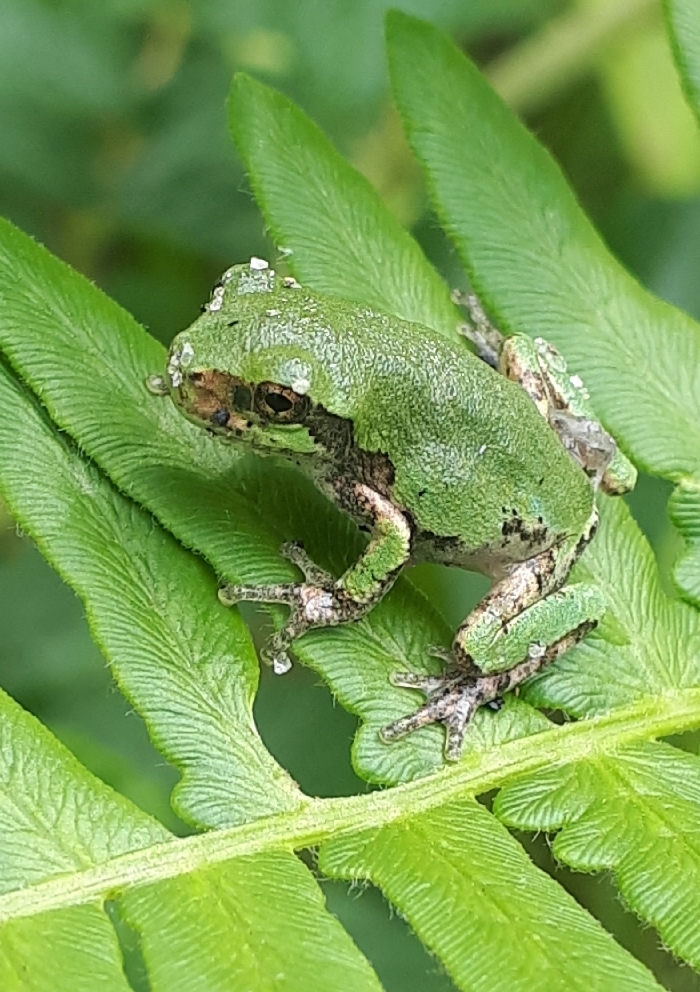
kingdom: Animalia
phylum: Chordata
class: Amphibia
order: Anura
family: Hylidae
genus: Dryophytes
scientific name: Dryophytes versicolor
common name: Gray treefrog
